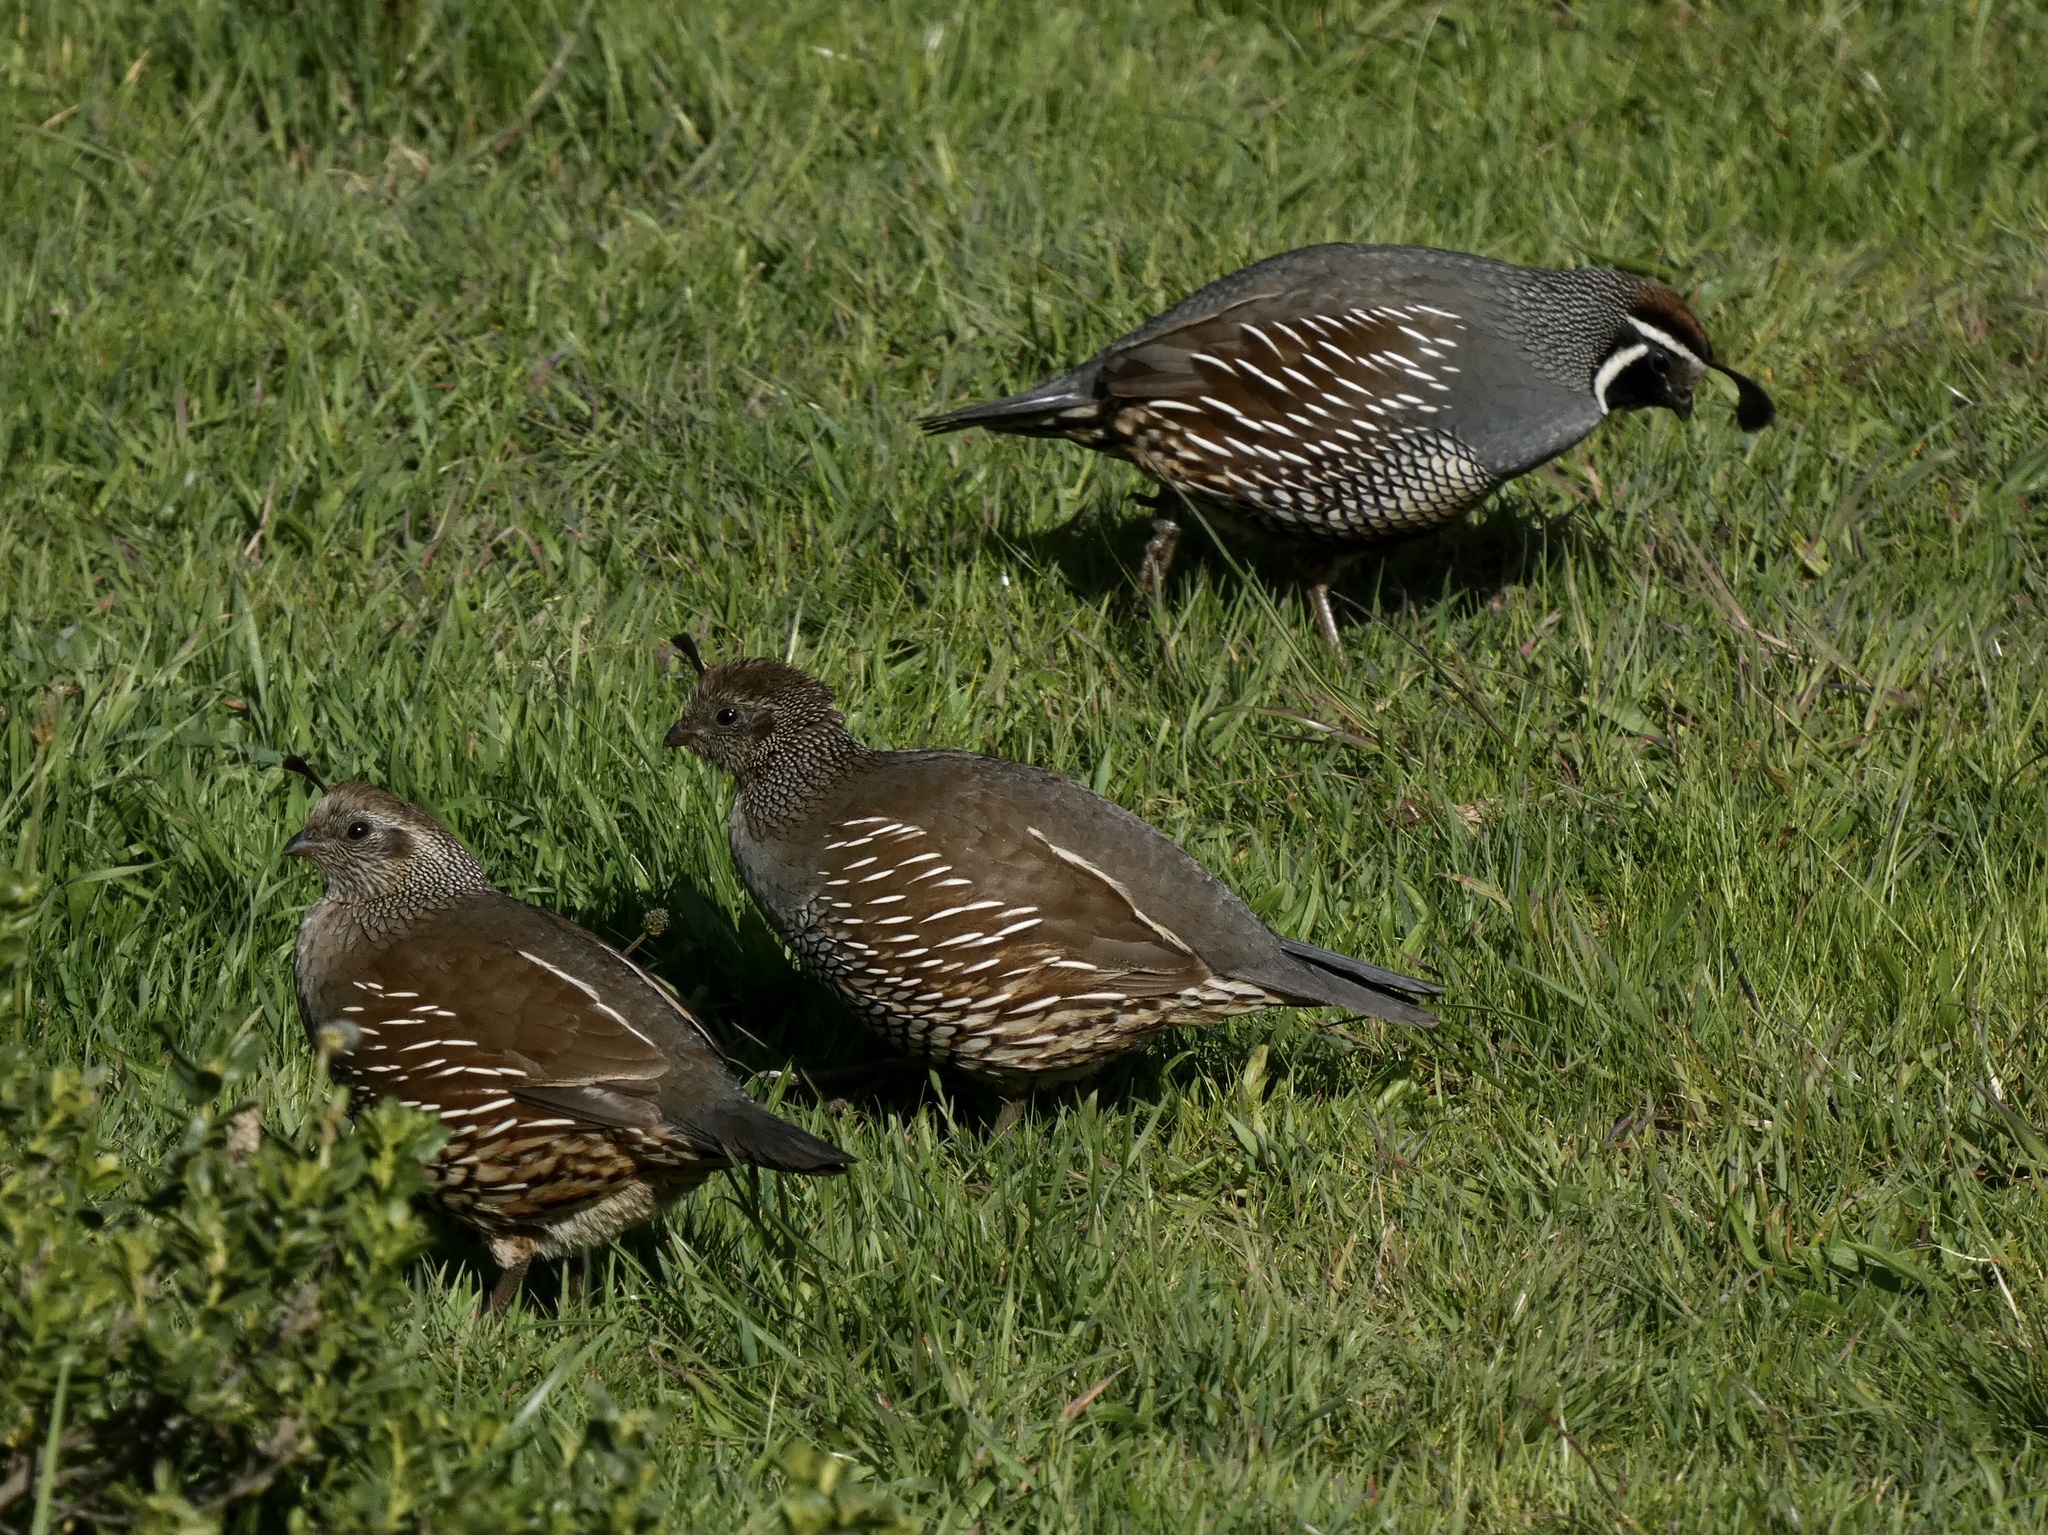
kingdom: Animalia
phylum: Chordata
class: Aves
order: Galliformes
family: Odontophoridae
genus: Callipepla
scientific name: Callipepla californica
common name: California quail
